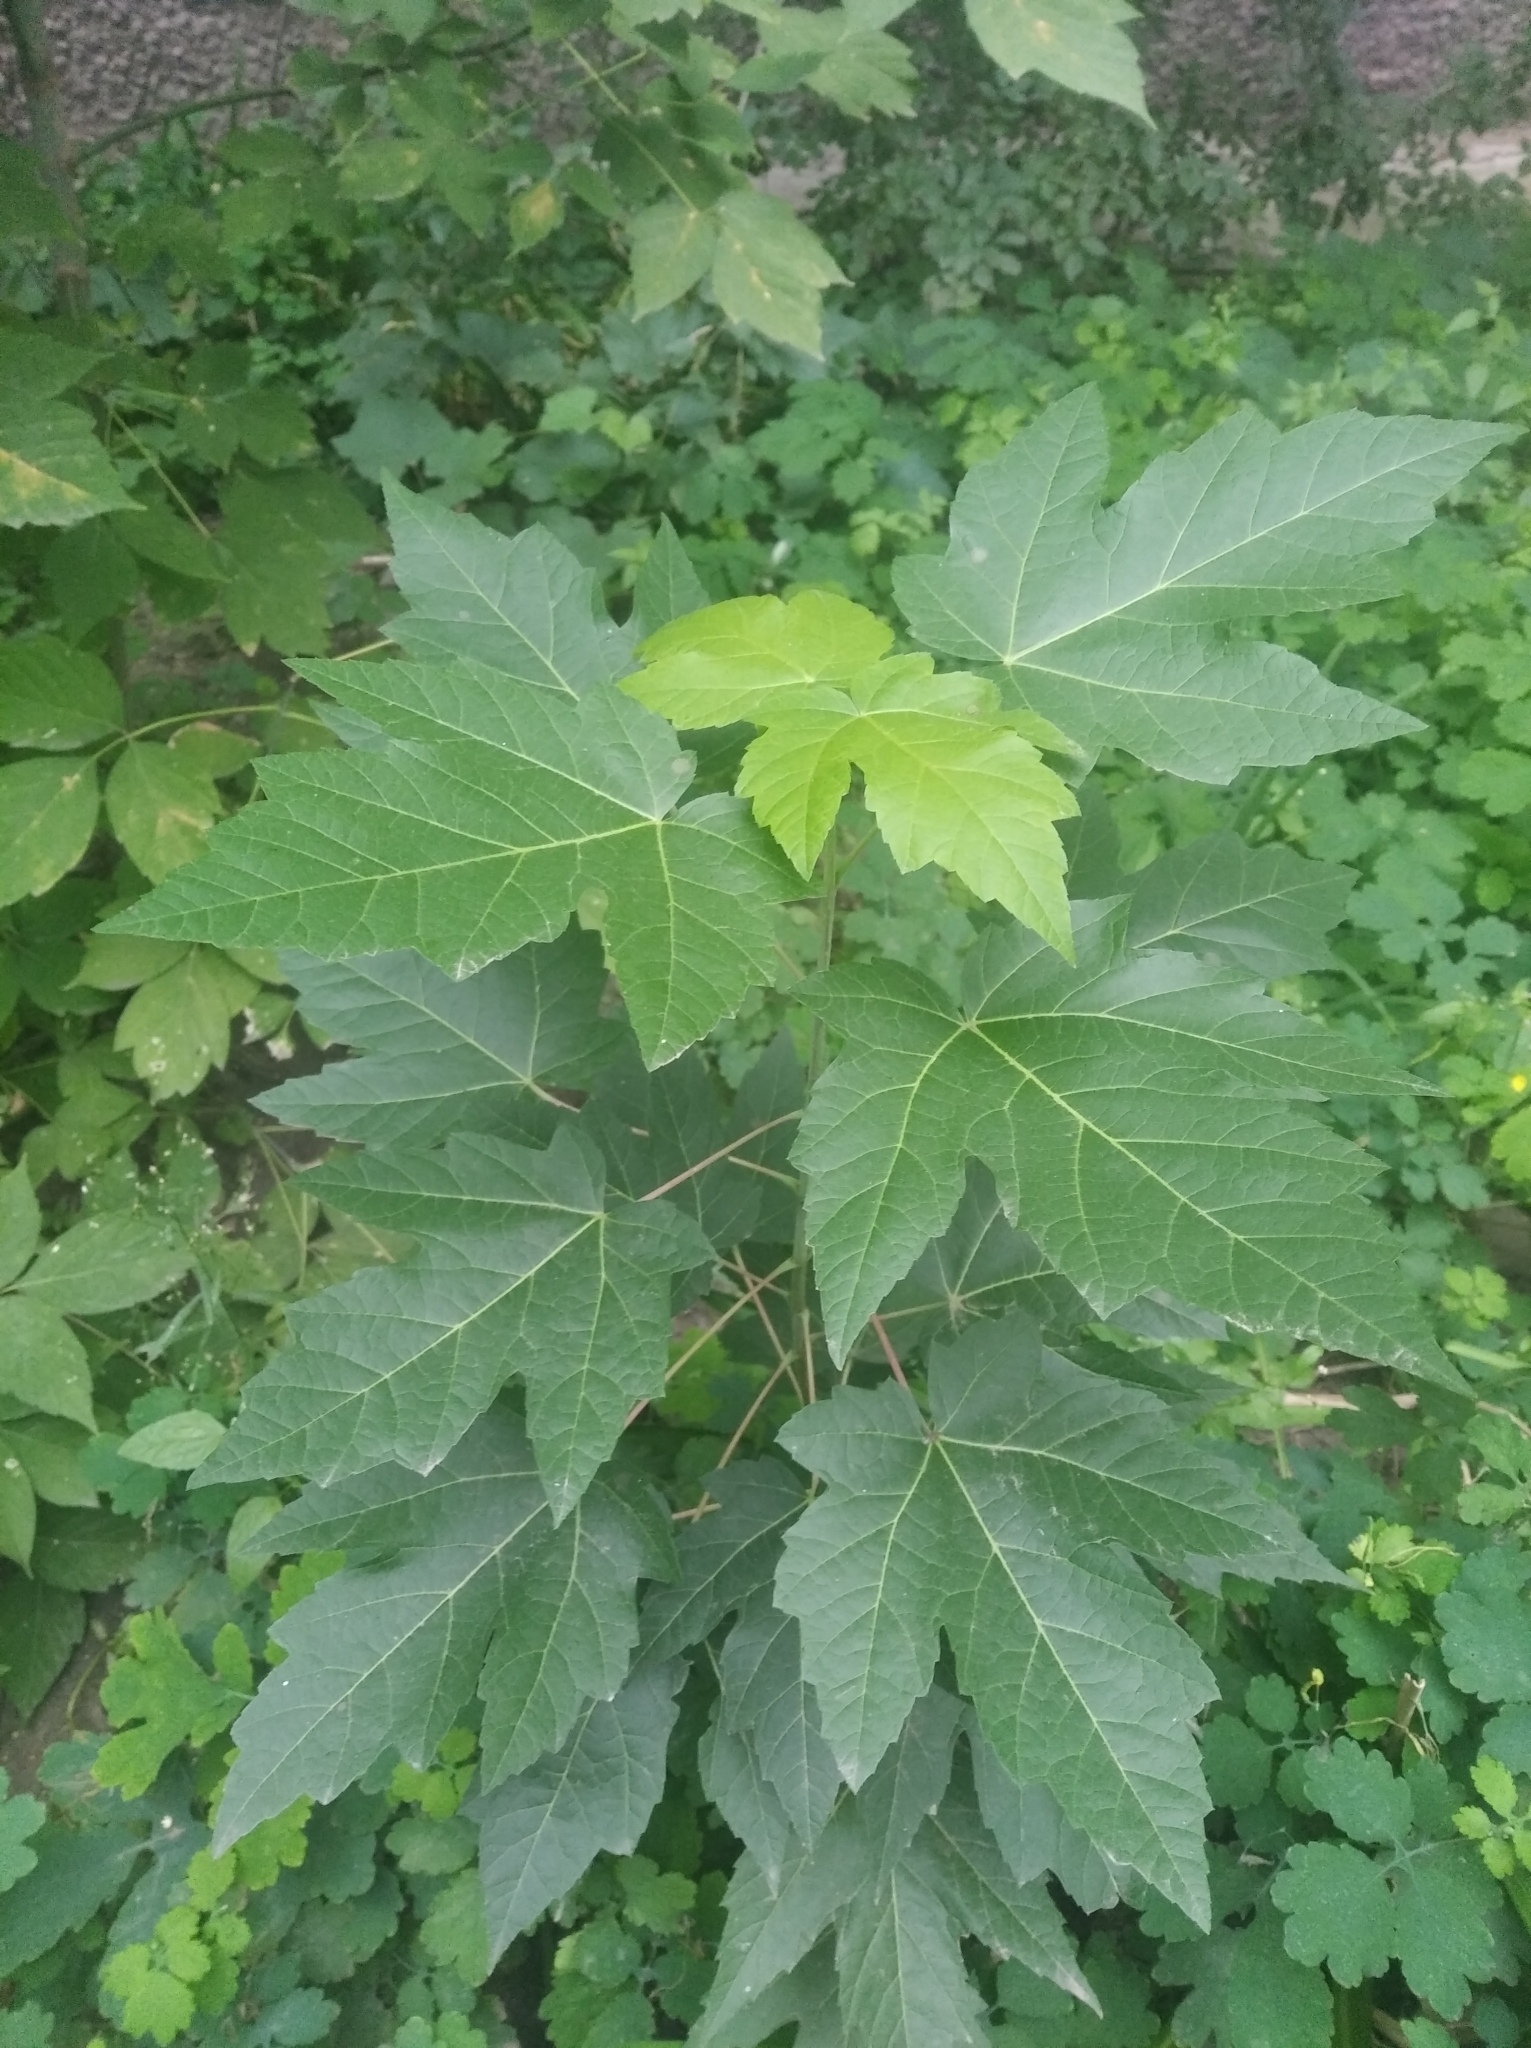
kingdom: Plantae
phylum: Tracheophyta
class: Magnoliopsida
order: Sapindales
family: Sapindaceae
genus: Acer
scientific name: Acer saccharinum
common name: Silver maple
